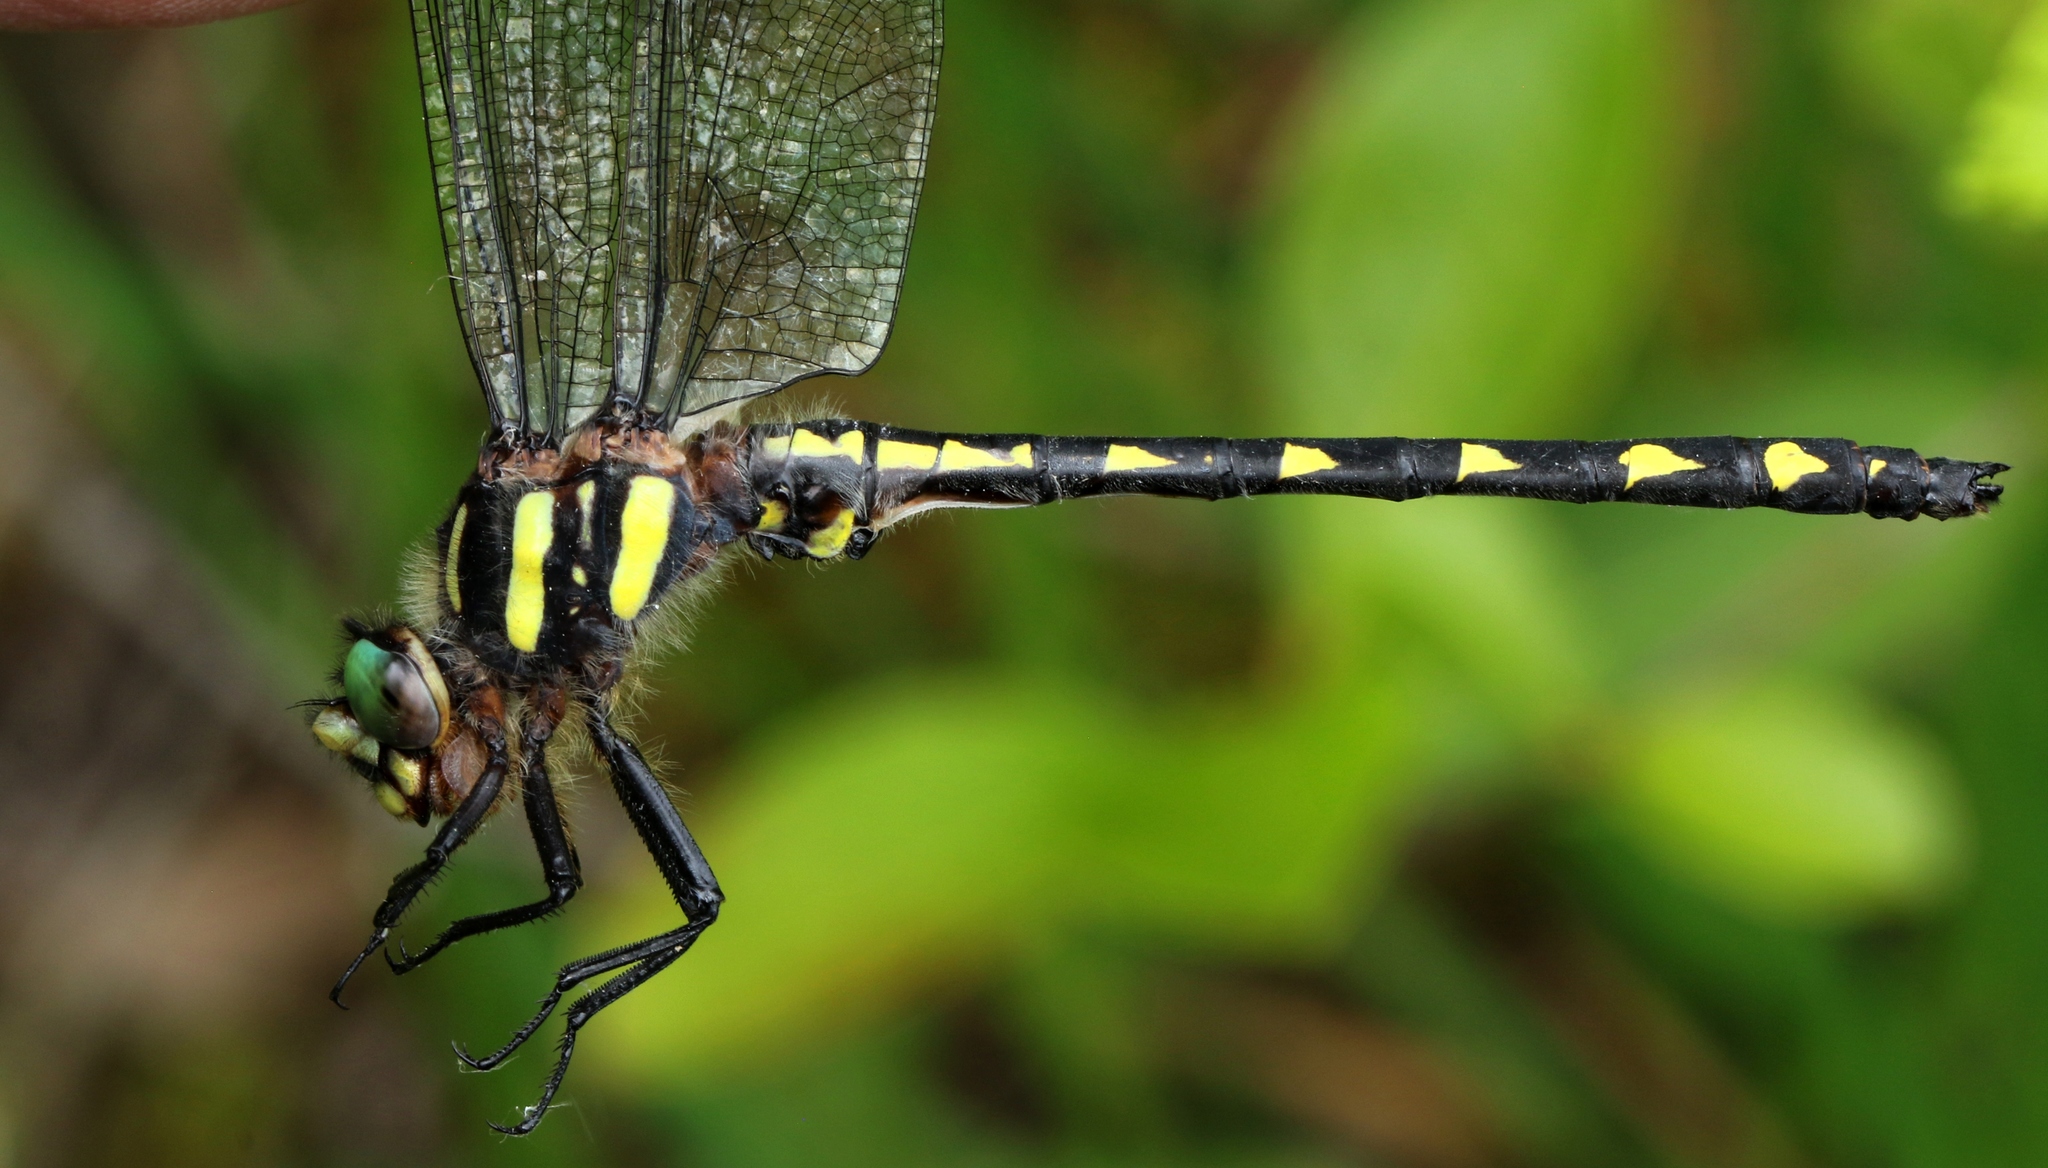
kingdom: Animalia
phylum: Arthropoda
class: Insecta
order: Odonata
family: Cordulegastridae
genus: Cordulegaster
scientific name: Cordulegaster diastatops
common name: Delta-spotted spiketail
